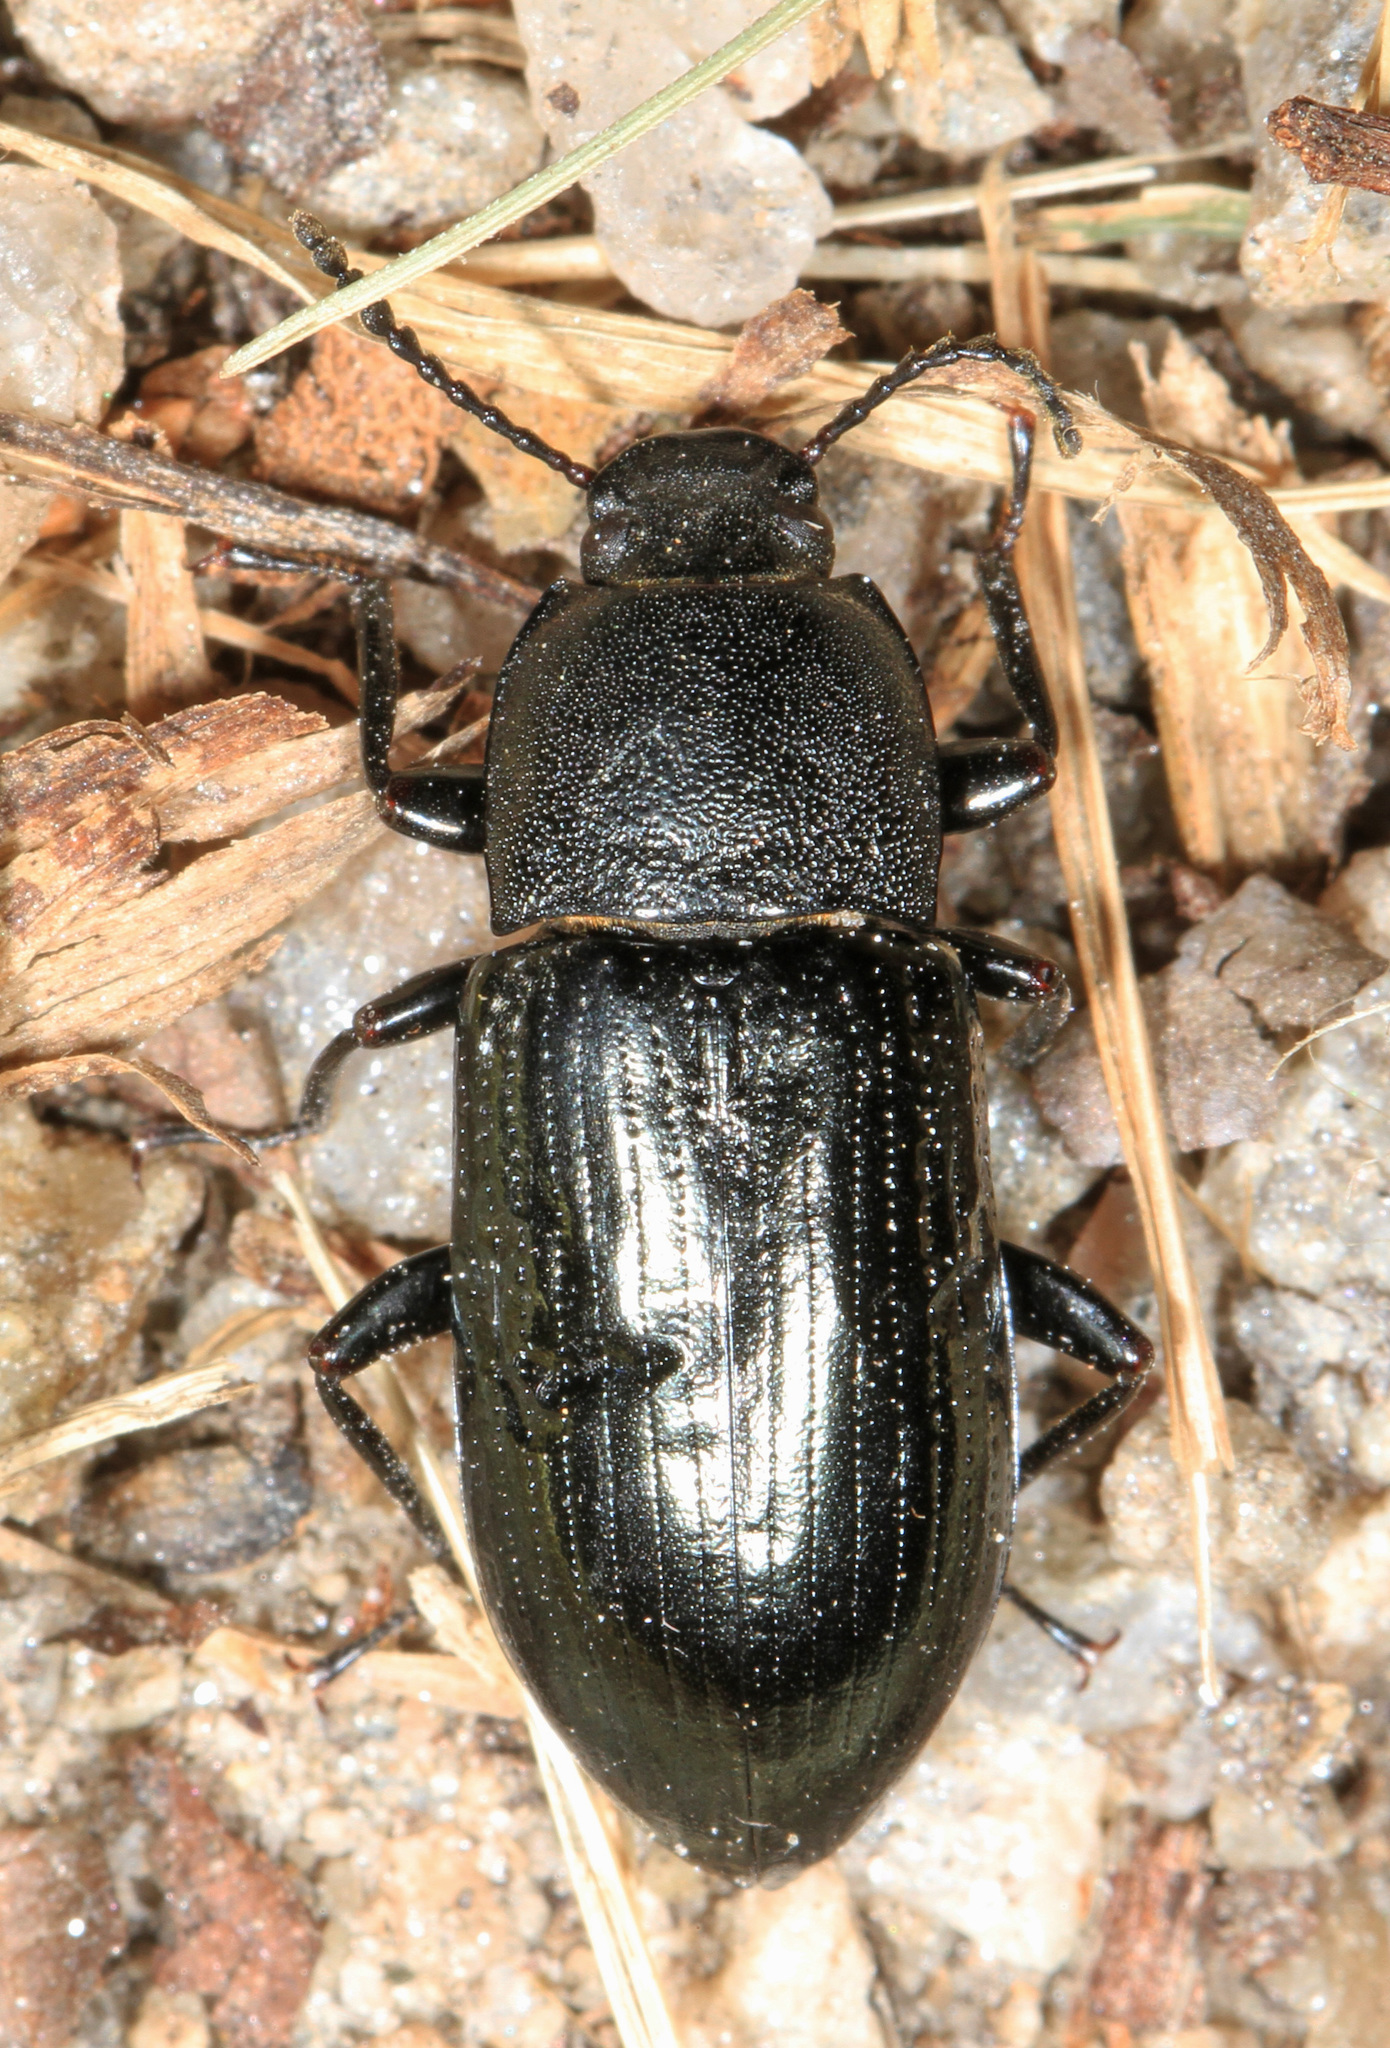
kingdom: Animalia
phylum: Arthropoda
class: Insecta
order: Coleoptera
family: Tenebrionidae
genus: Centronopus
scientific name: Centronopus calcaratus
